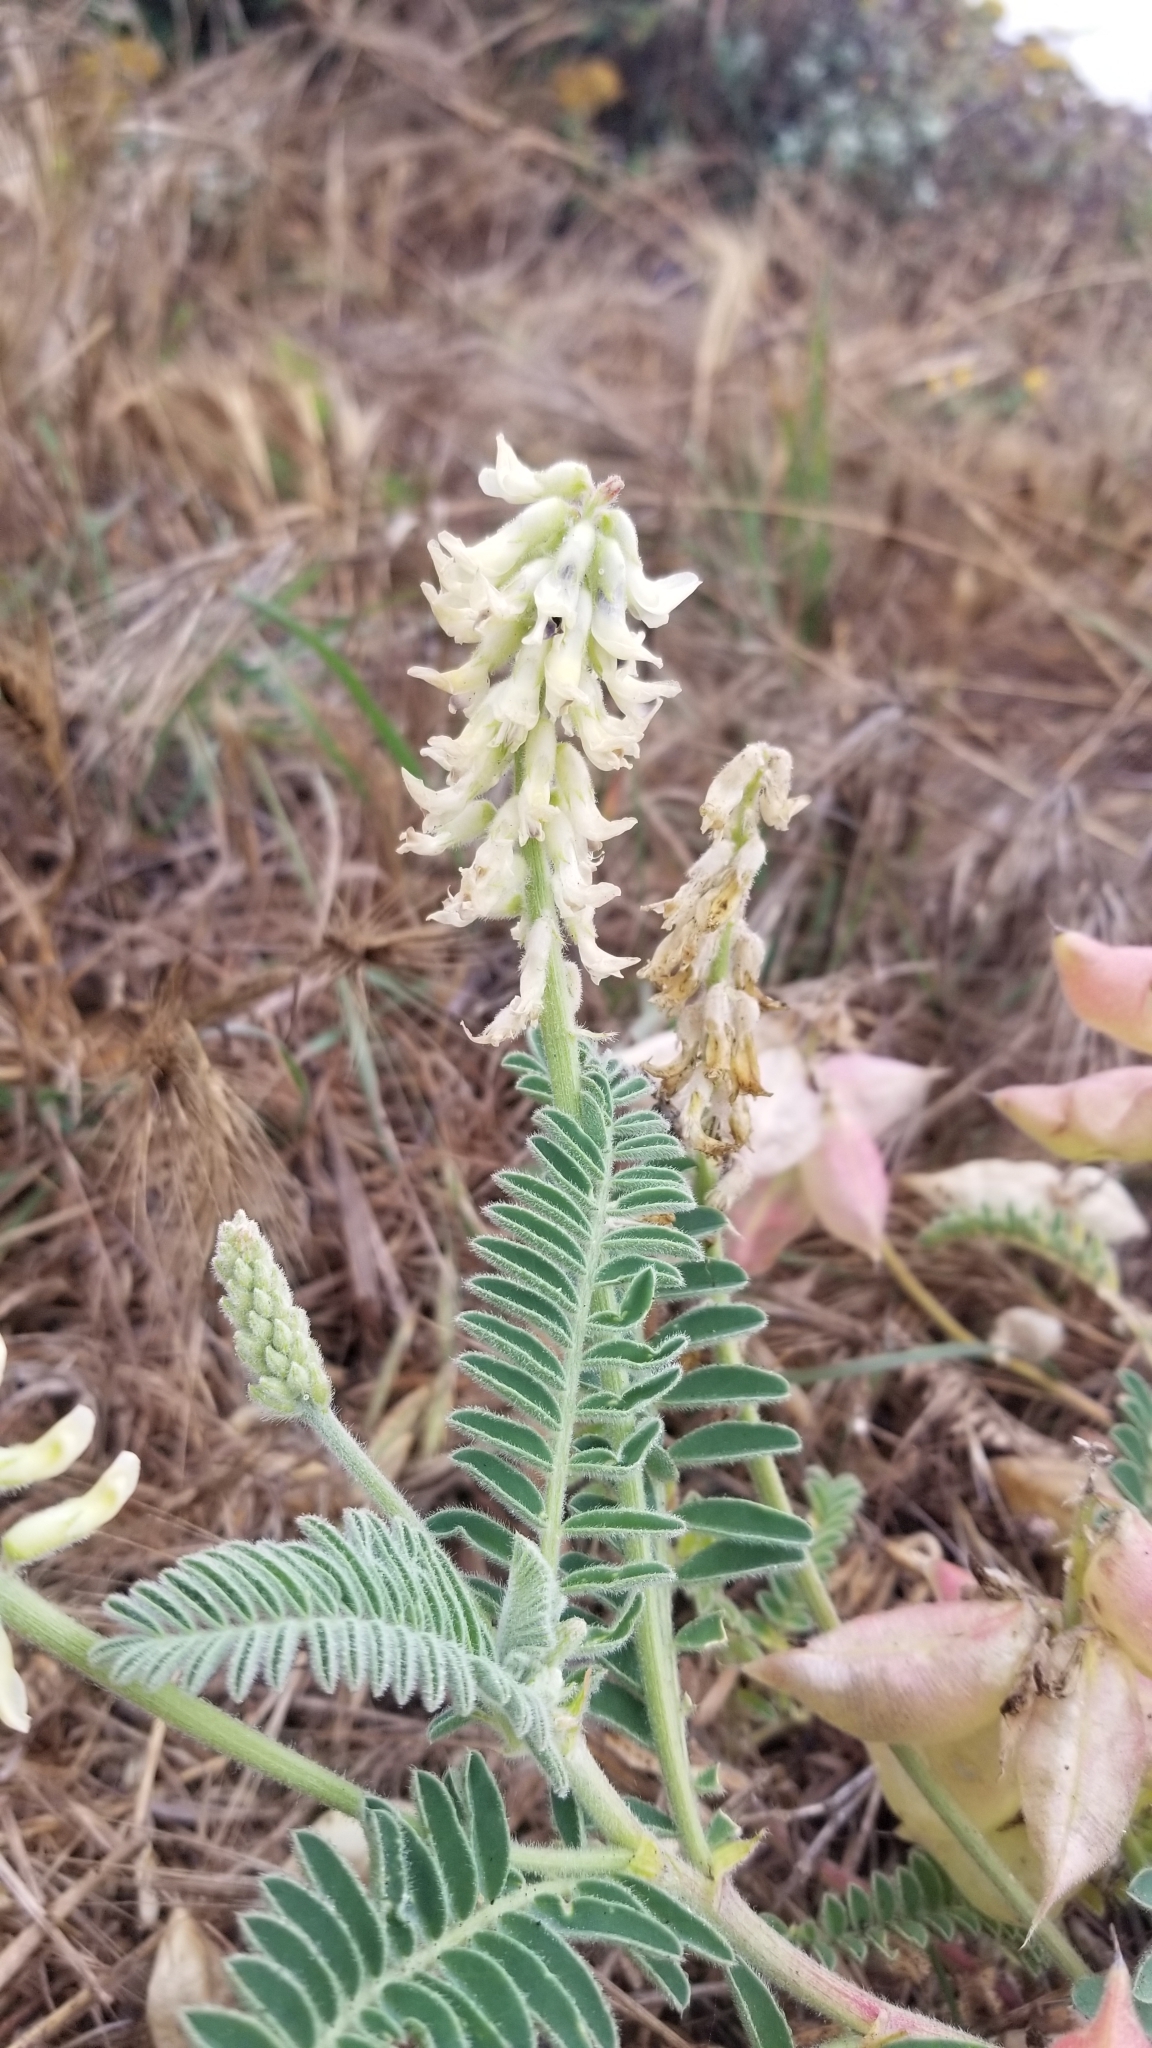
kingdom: Plantae
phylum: Tracheophyta
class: Magnoliopsida
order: Fabales
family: Fabaceae
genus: Astragalus
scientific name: Astragalus nuttallii
